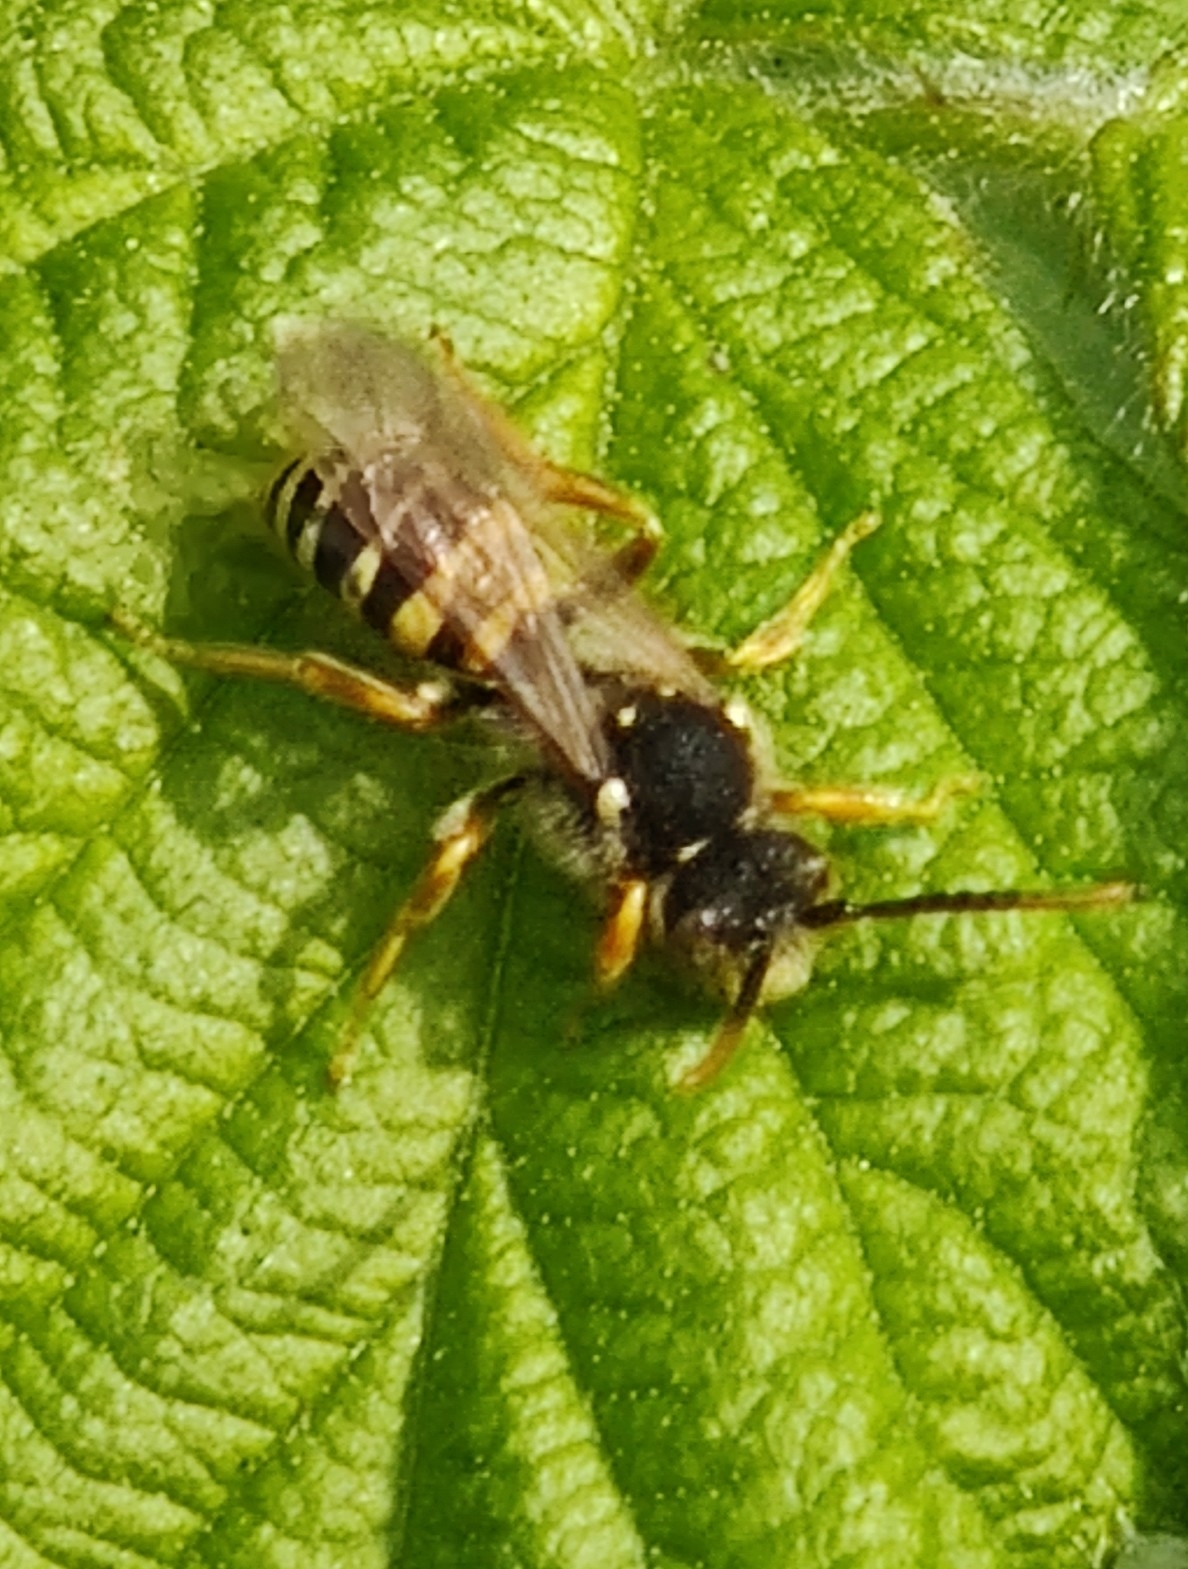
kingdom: Animalia
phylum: Arthropoda
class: Insecta
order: Hymenoptera
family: Apidae
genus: Nomada
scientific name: Nomada goodeniana
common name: Gooden's nomad bee
